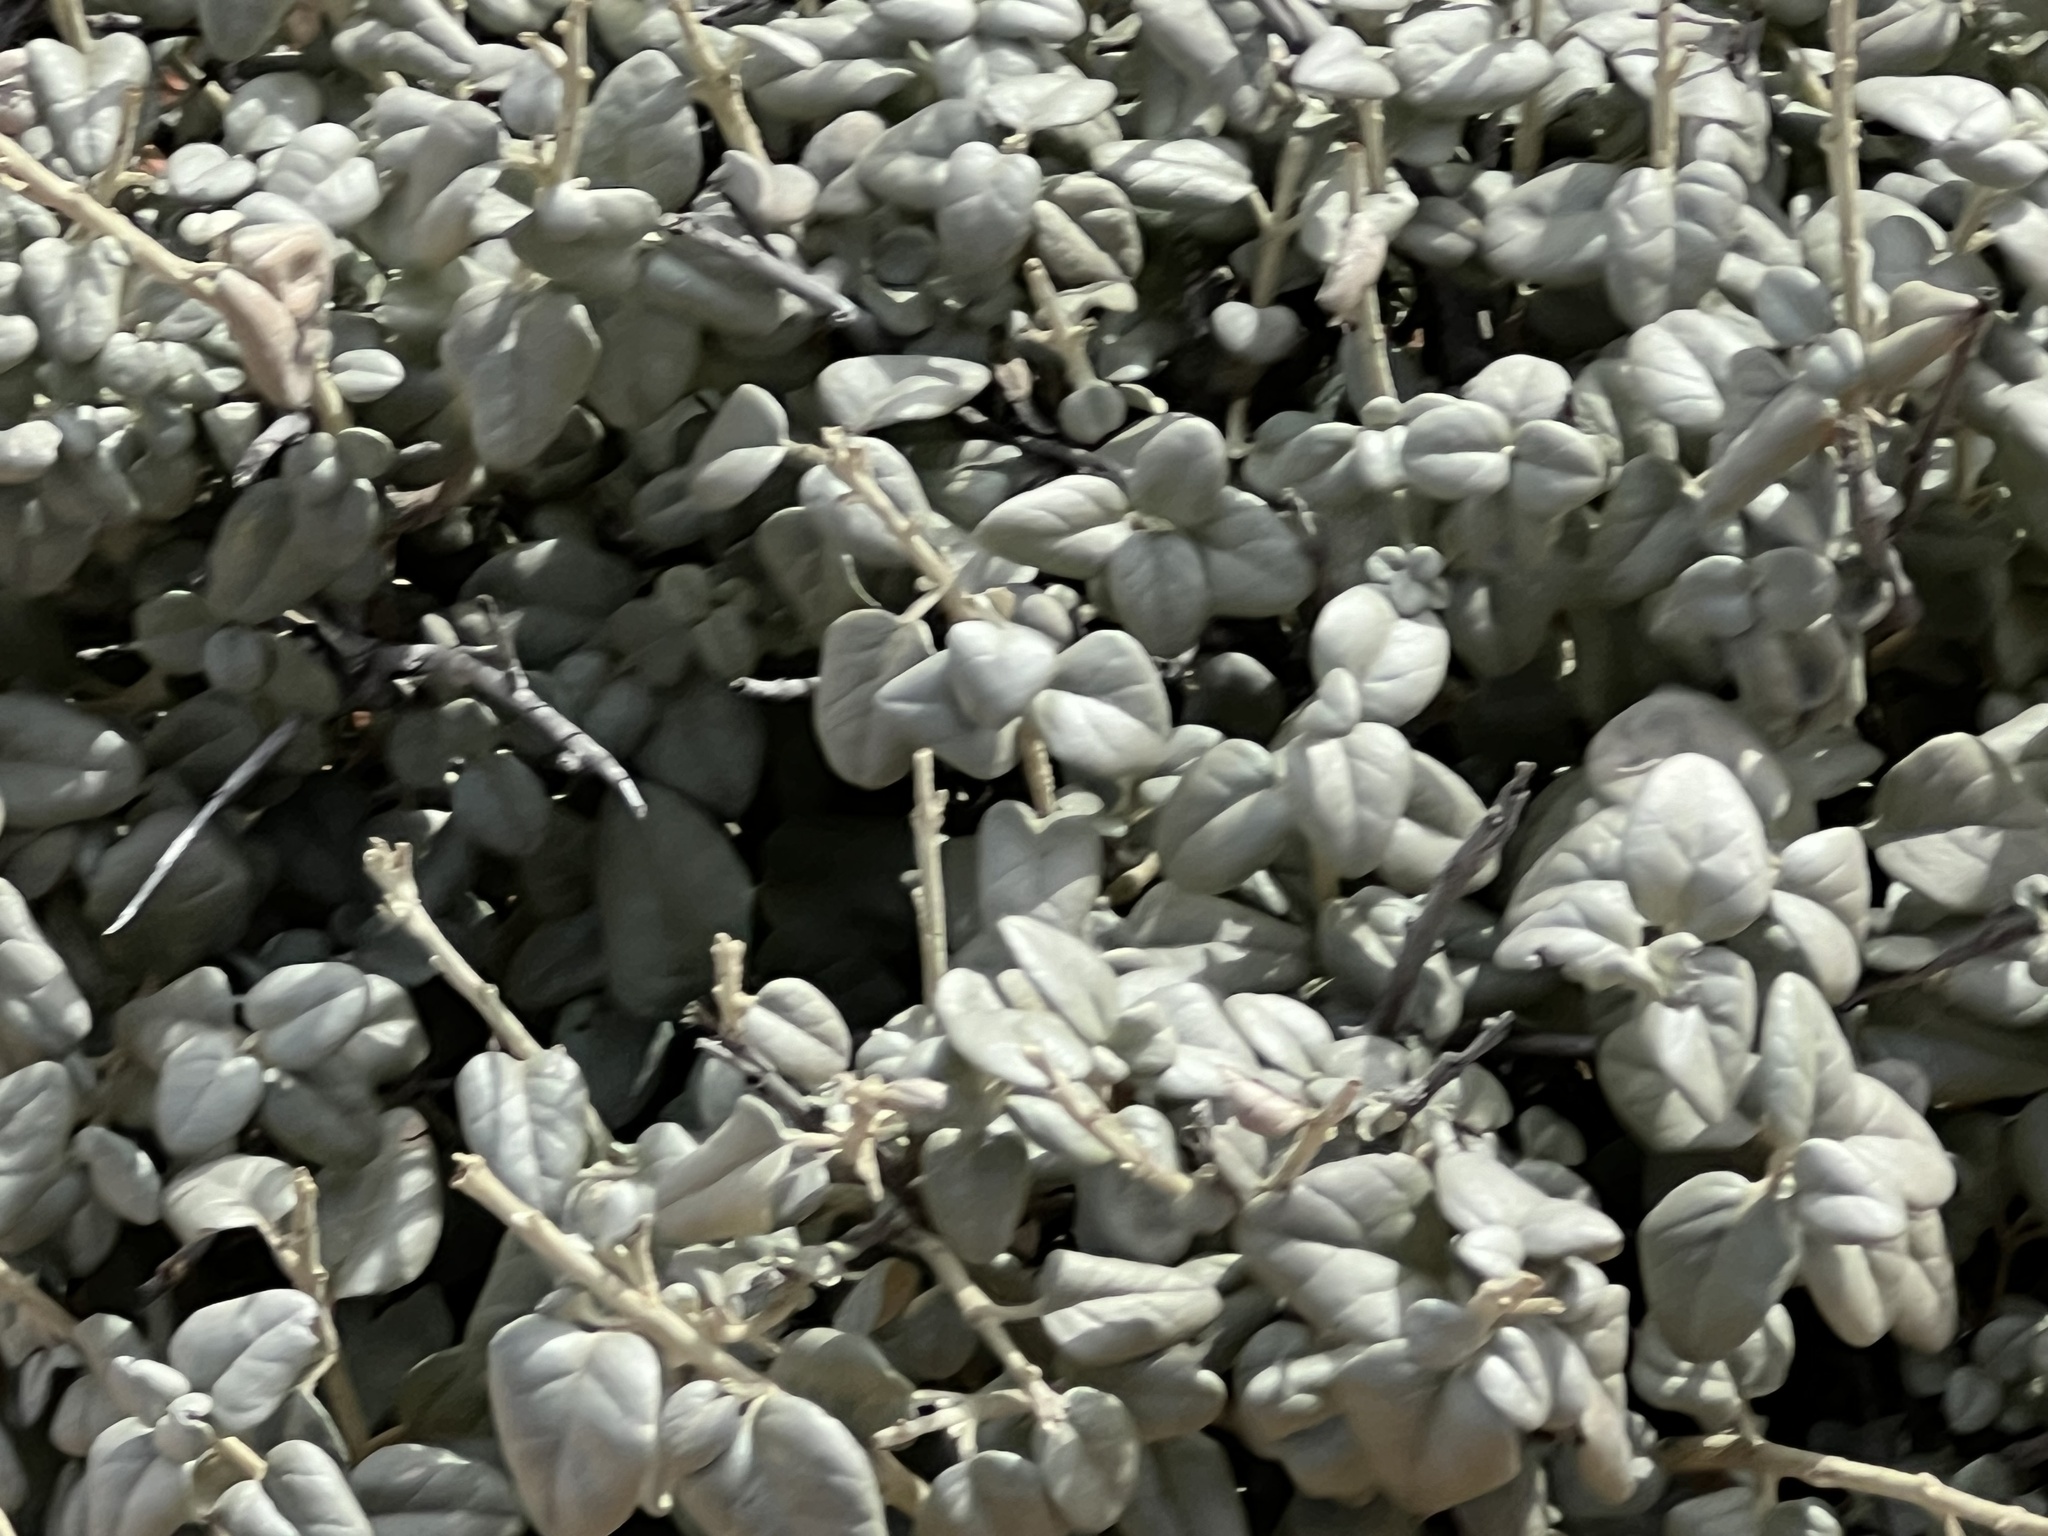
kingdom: Plantae
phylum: Tracheophyta
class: Magnoliopsida
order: Rosales
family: Elaeagnaceae
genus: Shepherdia
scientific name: Shepherdia rotundifolia
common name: Silverscale
